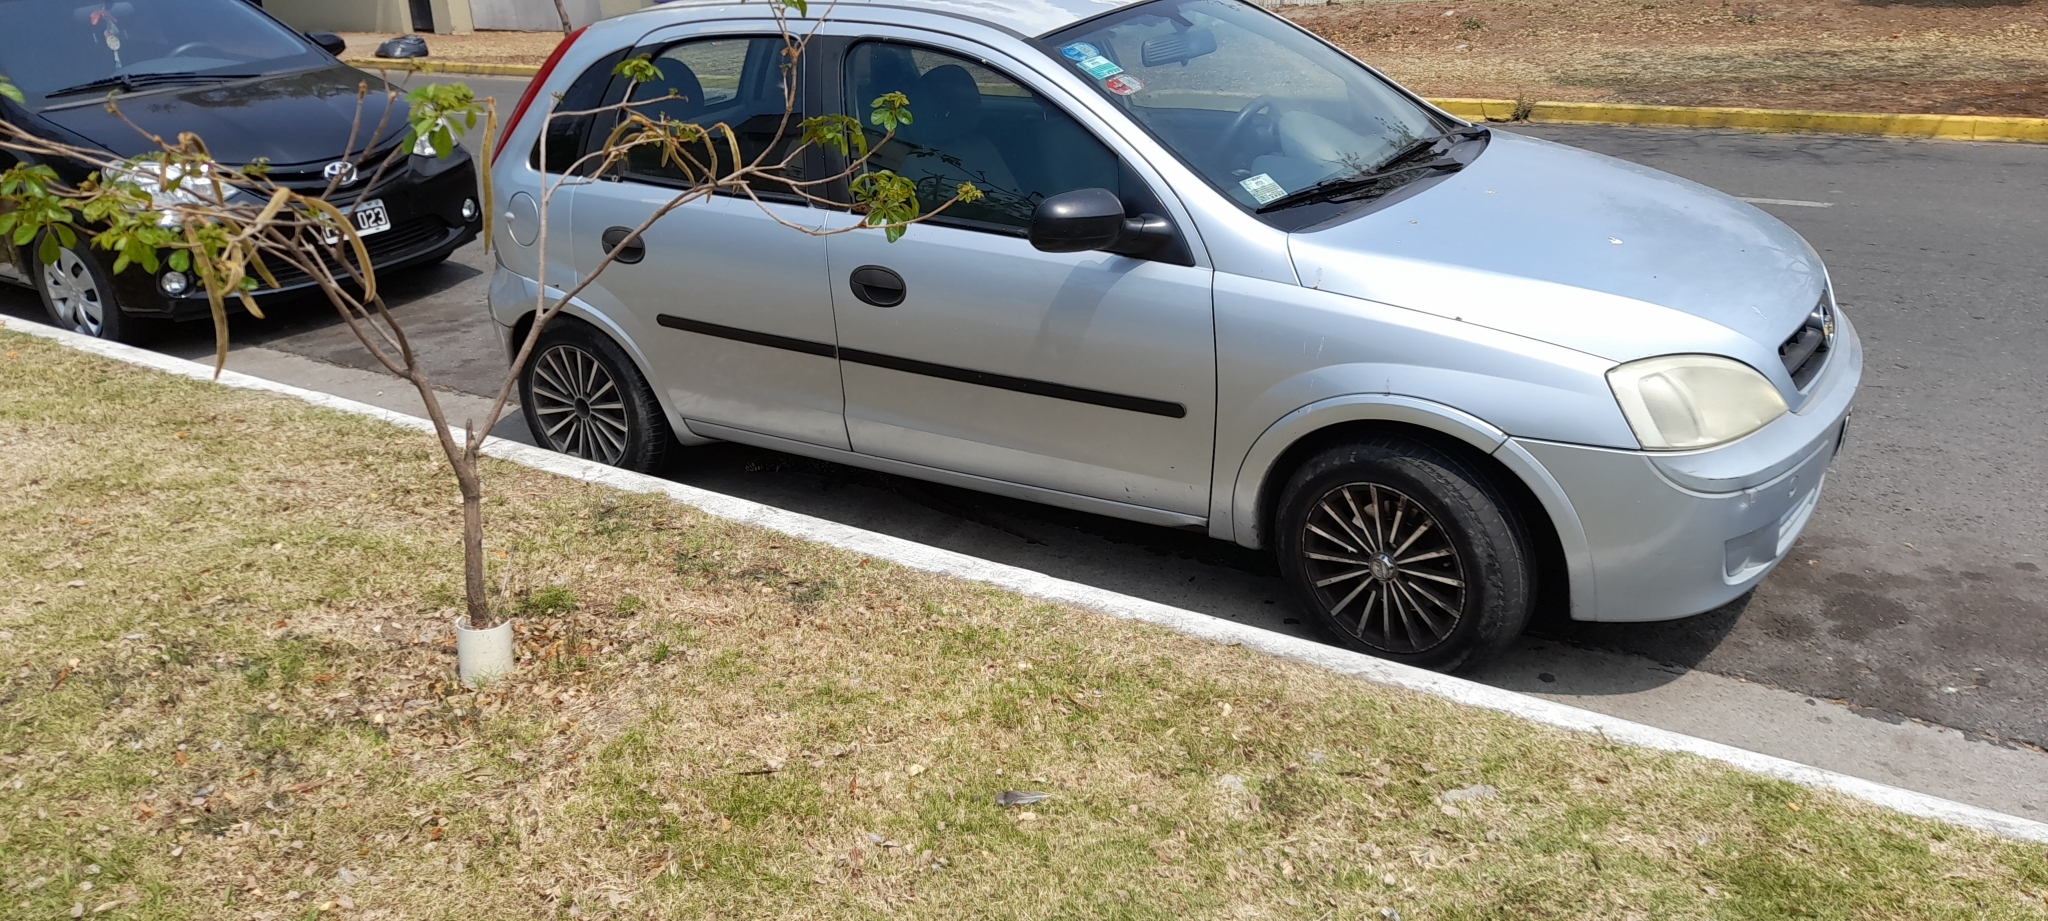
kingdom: Animalia
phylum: Chordata
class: Squamata
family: Teiidae
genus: Salvator
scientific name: Salvator merianae
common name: Argentine black and white tegu
